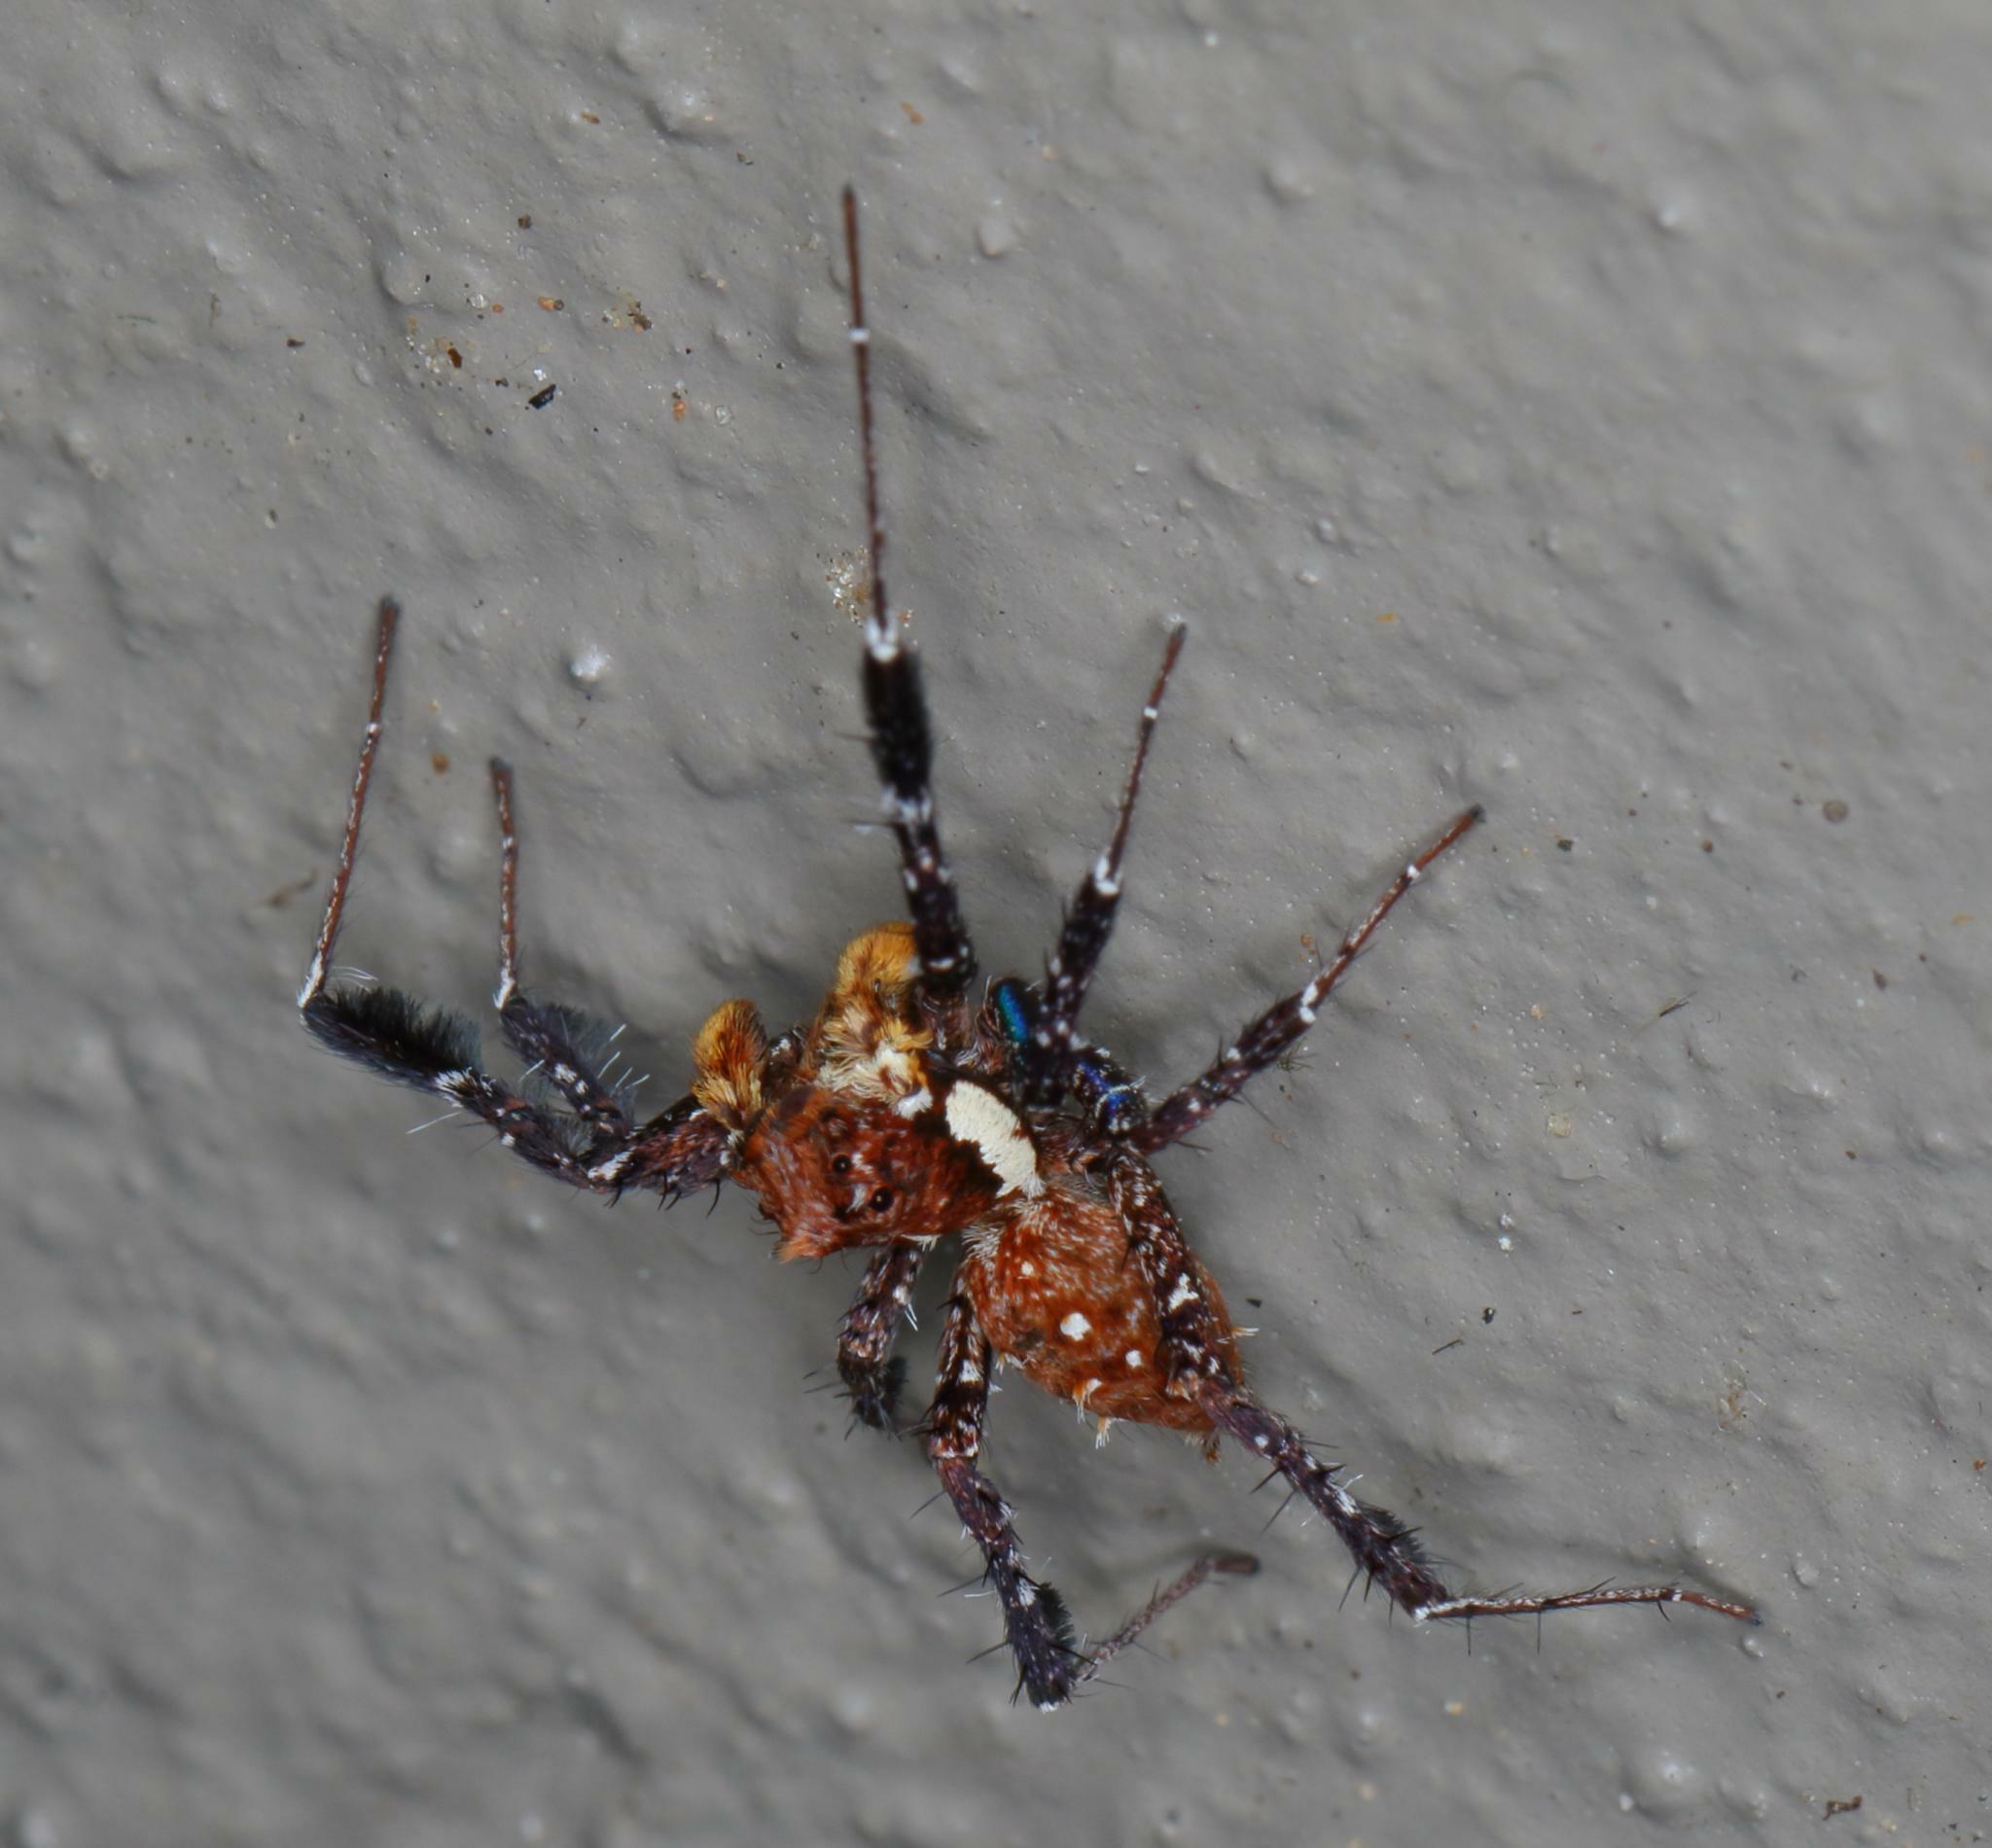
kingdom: Animalia
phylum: Arthropoda
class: Arachnida
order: Araneae
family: Salticidae
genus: Portia
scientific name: Portia schultzi
